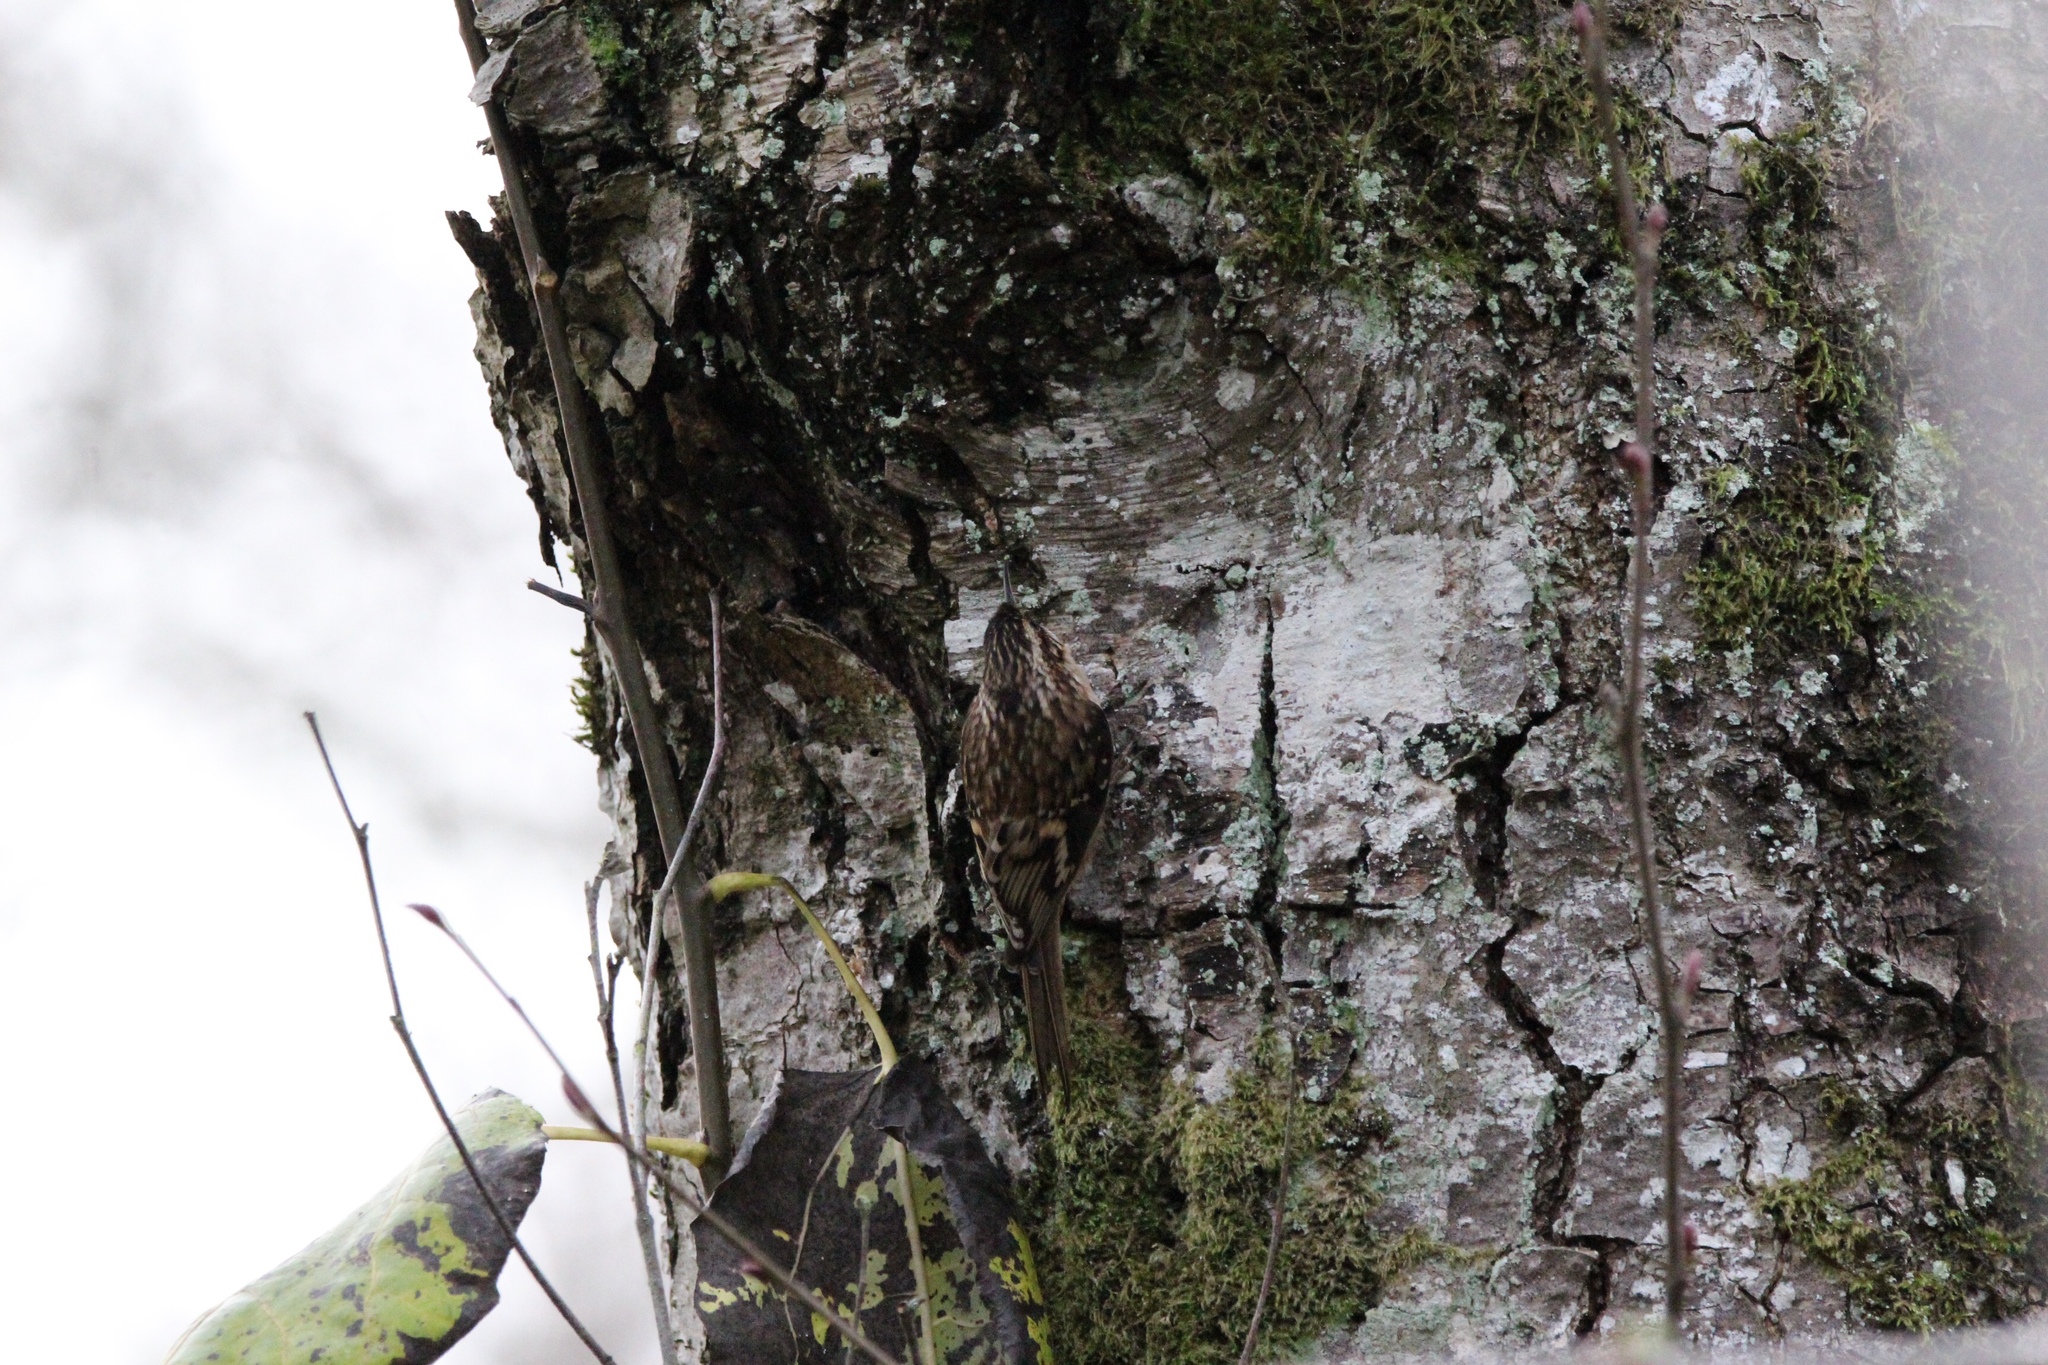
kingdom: Animalia
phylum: Chordata
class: Aves
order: Passeriformes
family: Certhiidae
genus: Certhia
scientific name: Certhia americana
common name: Brown creeper
